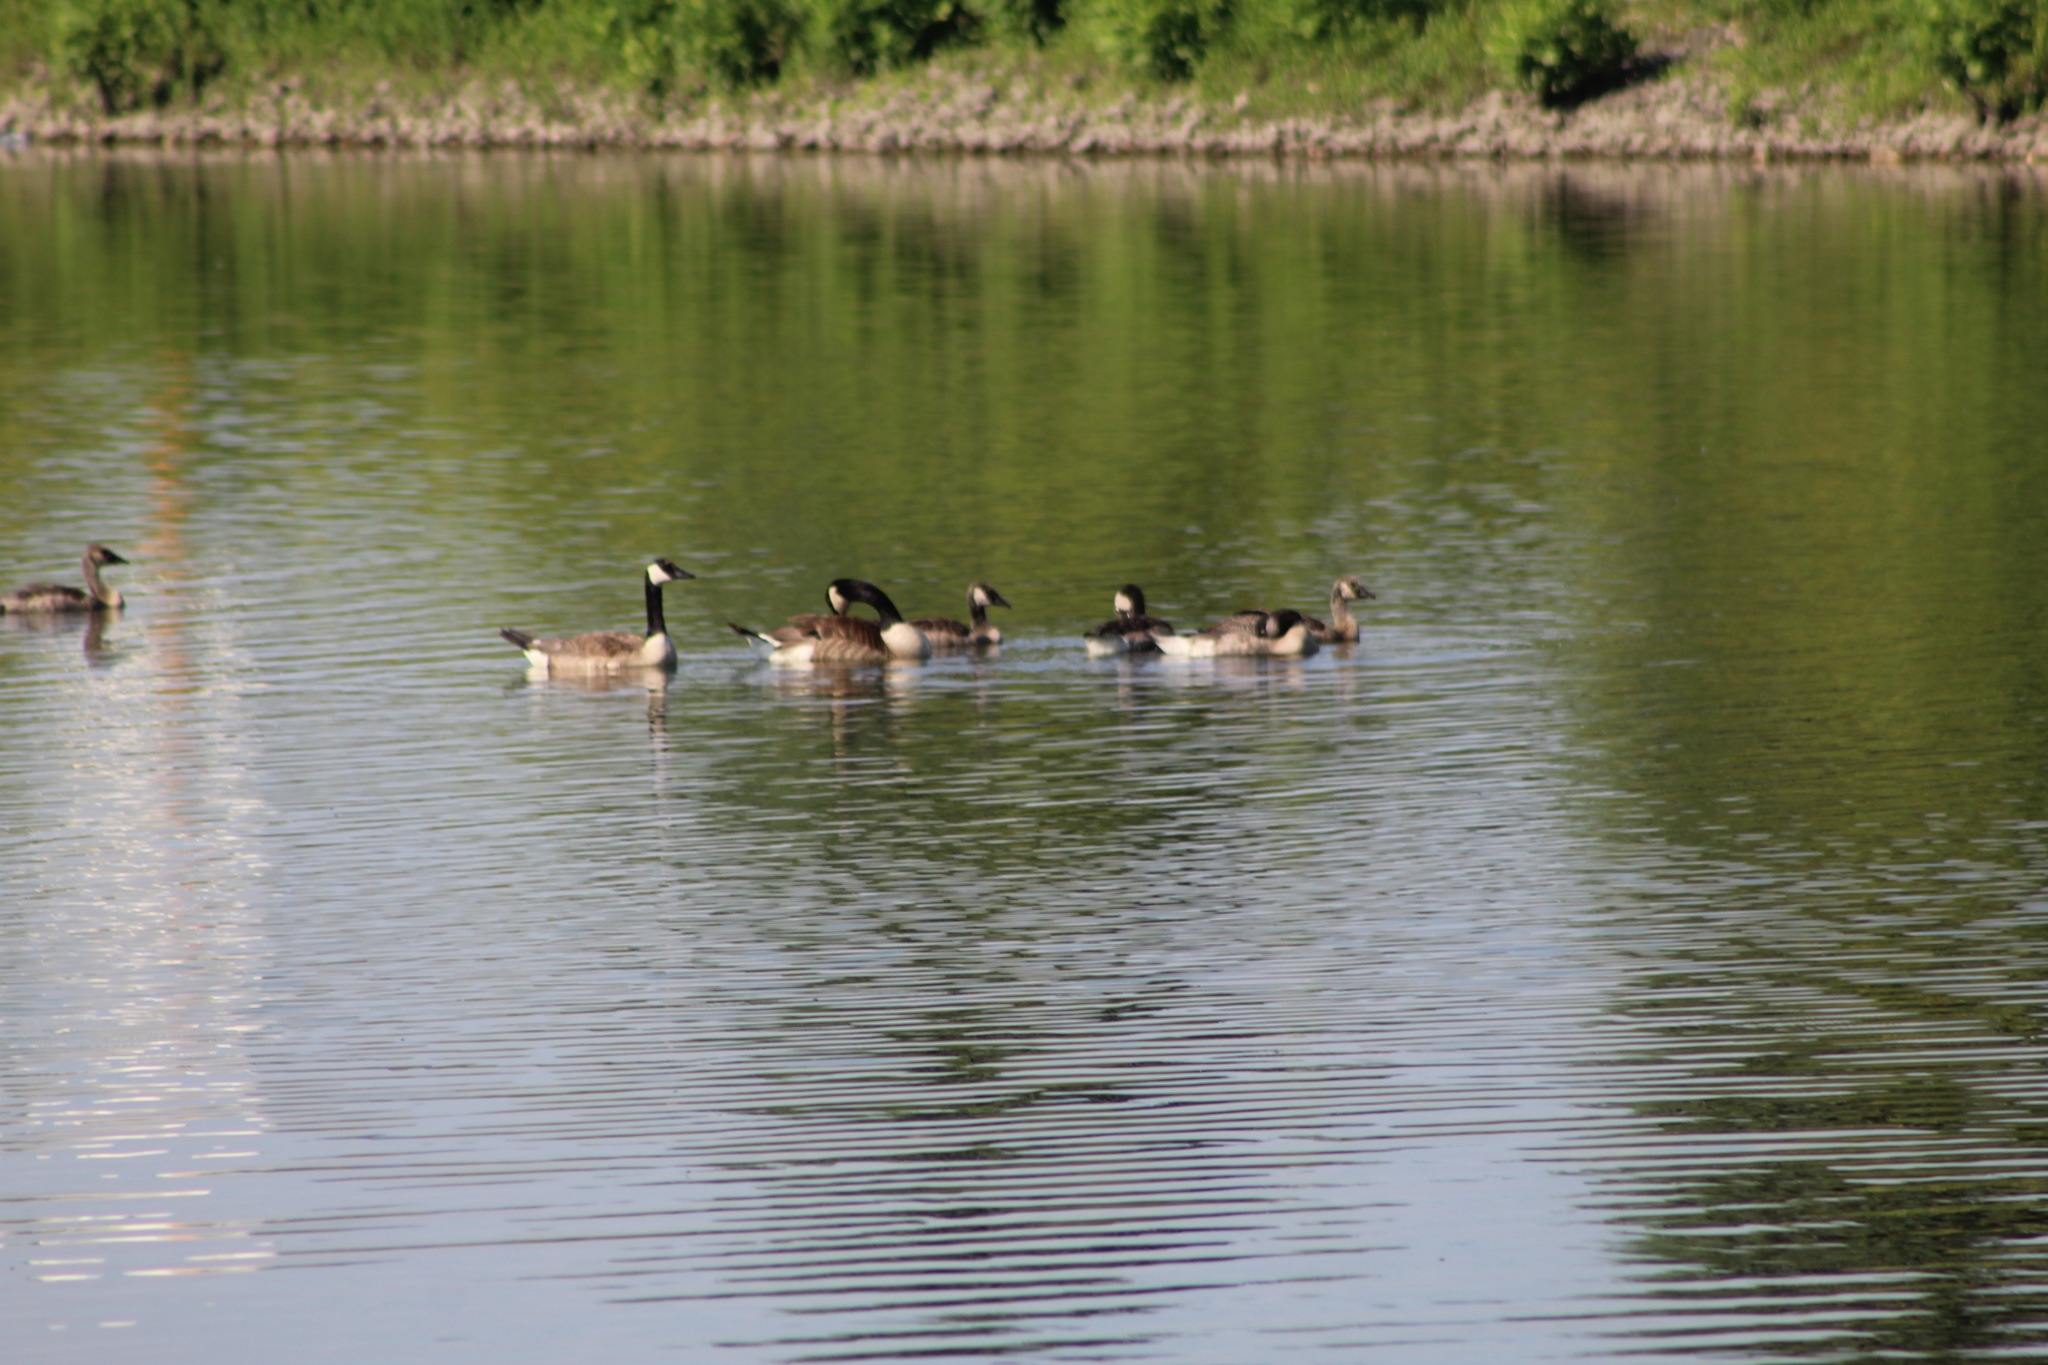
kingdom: Animalia
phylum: Chordata
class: Aves
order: Anseriformes
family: Anatidae
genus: Branta
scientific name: Branta canadensis
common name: Canada goose
